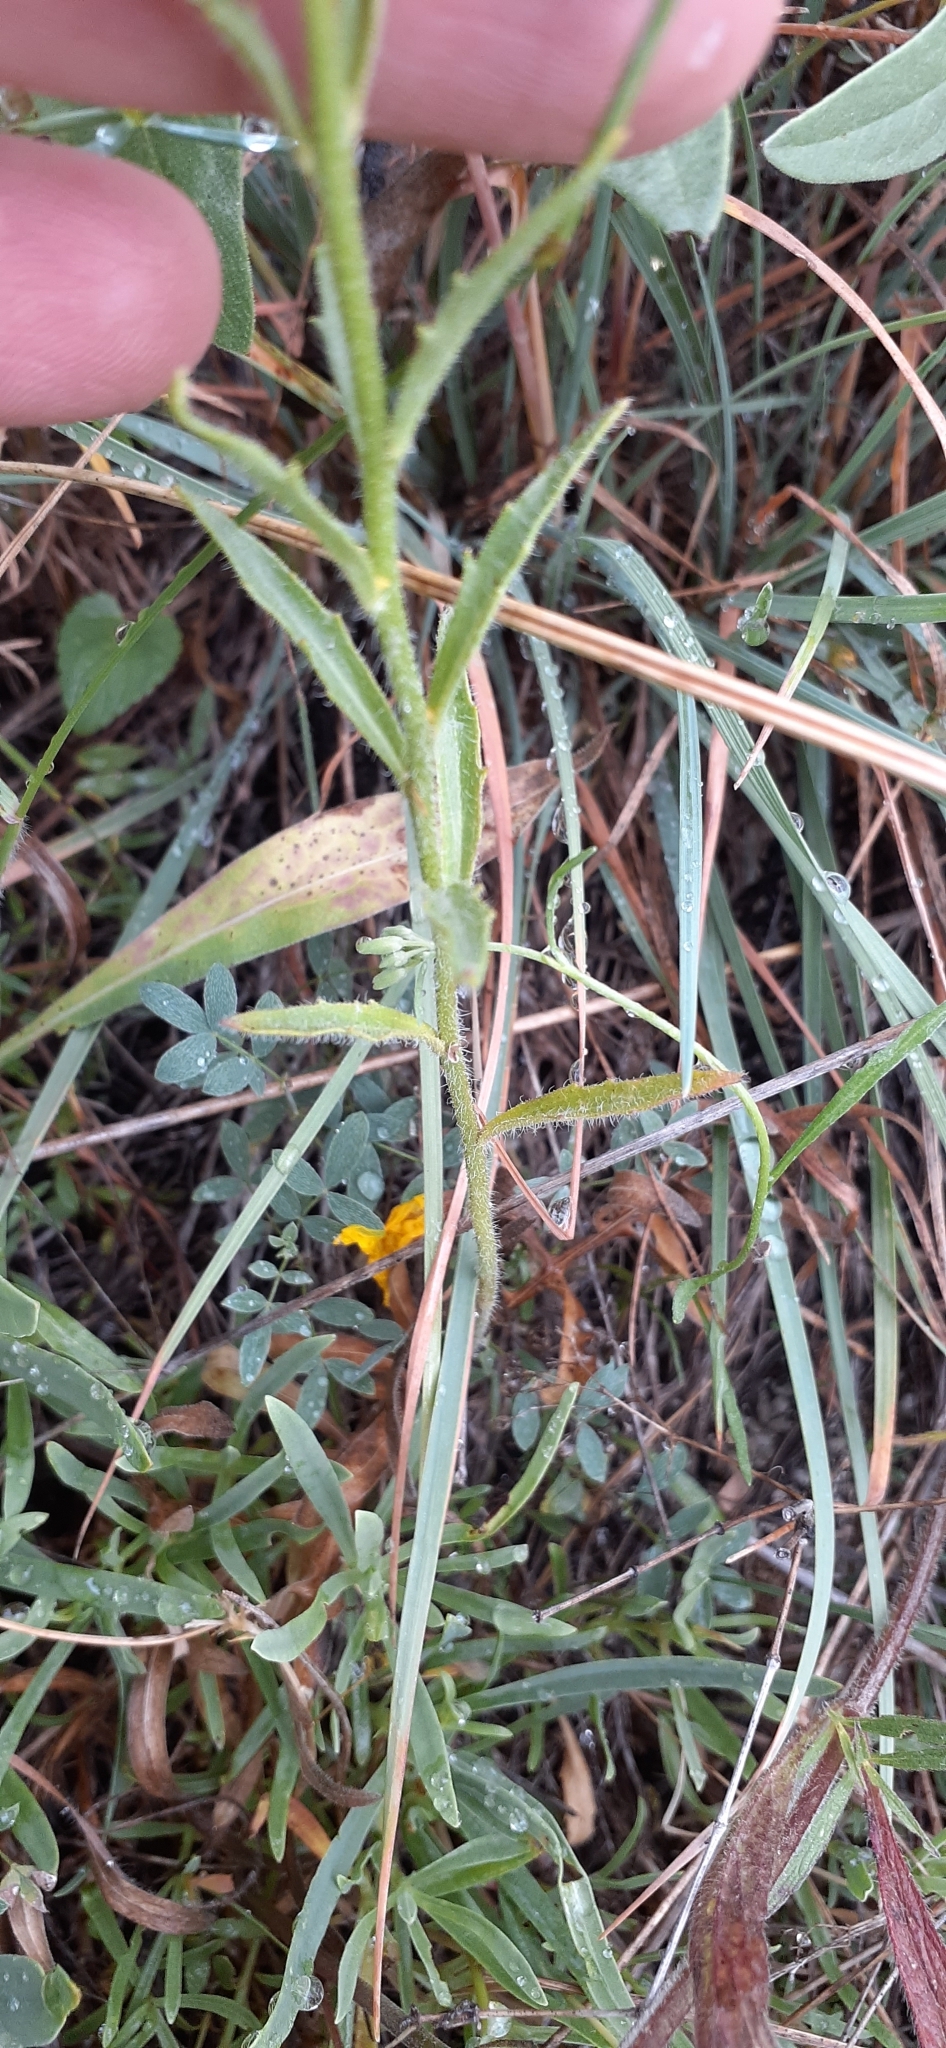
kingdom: Plantae
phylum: Tracheophyta
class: Magnoliopsida
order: Brassicales
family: Brassicaceae
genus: Clausia
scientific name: Clausia aprica
